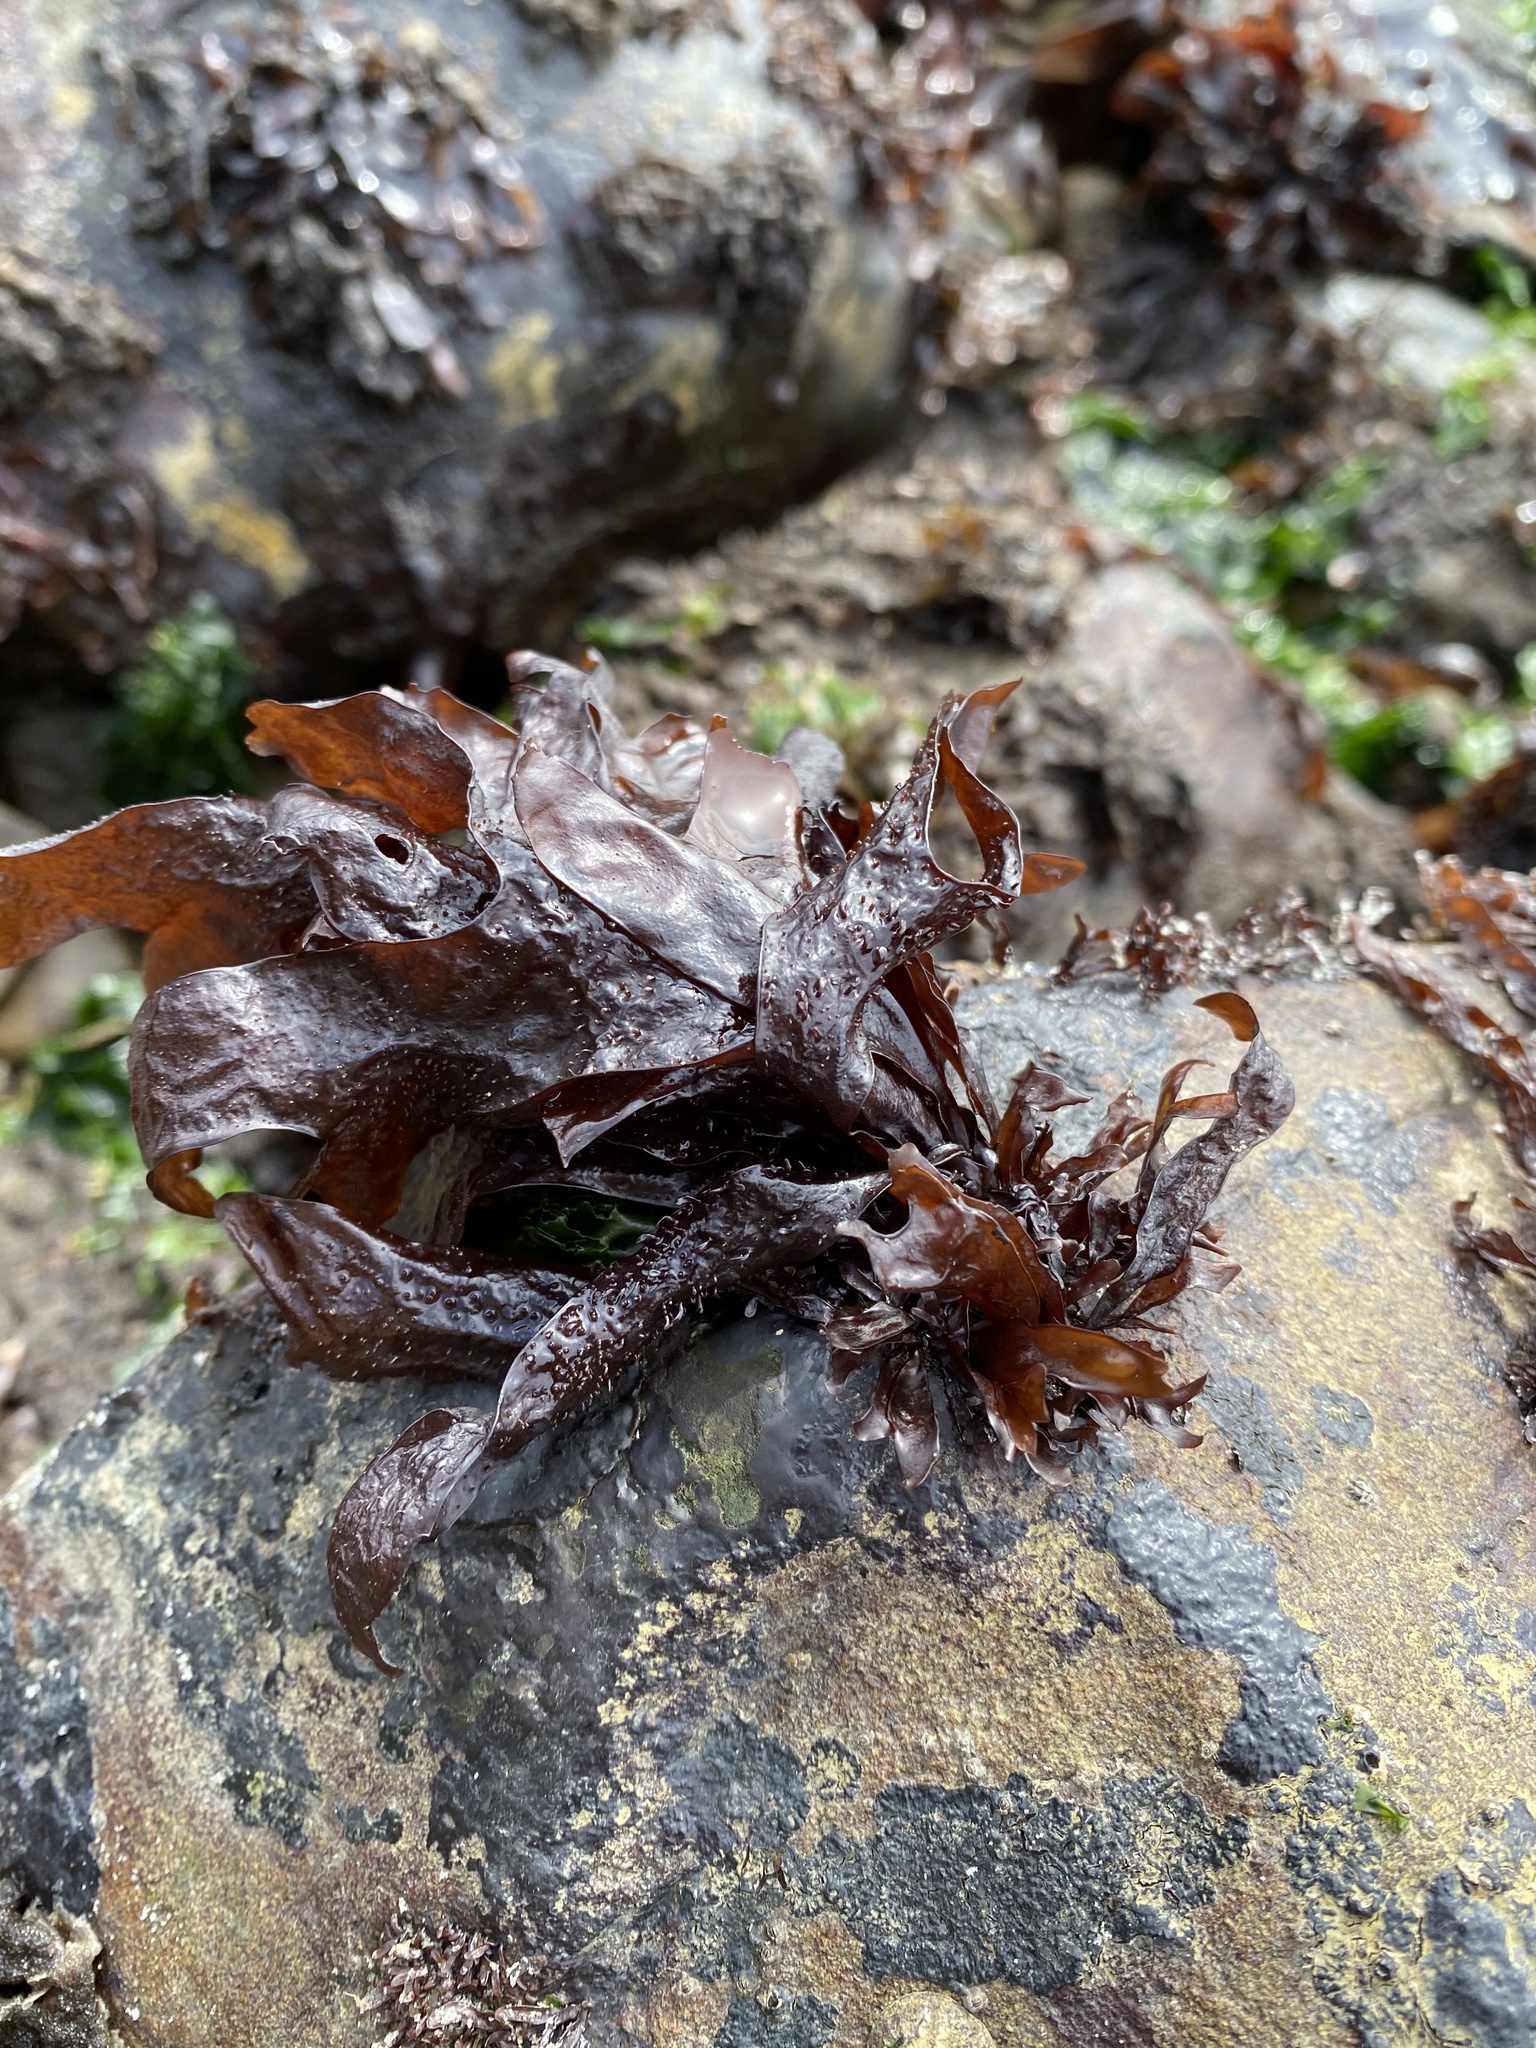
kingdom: Plantae
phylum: Rhodophyta
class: Florideophyceae
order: Gigartinales
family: Phyllophoraceae
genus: Mastocarpus
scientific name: Mastocarpus papillatus
